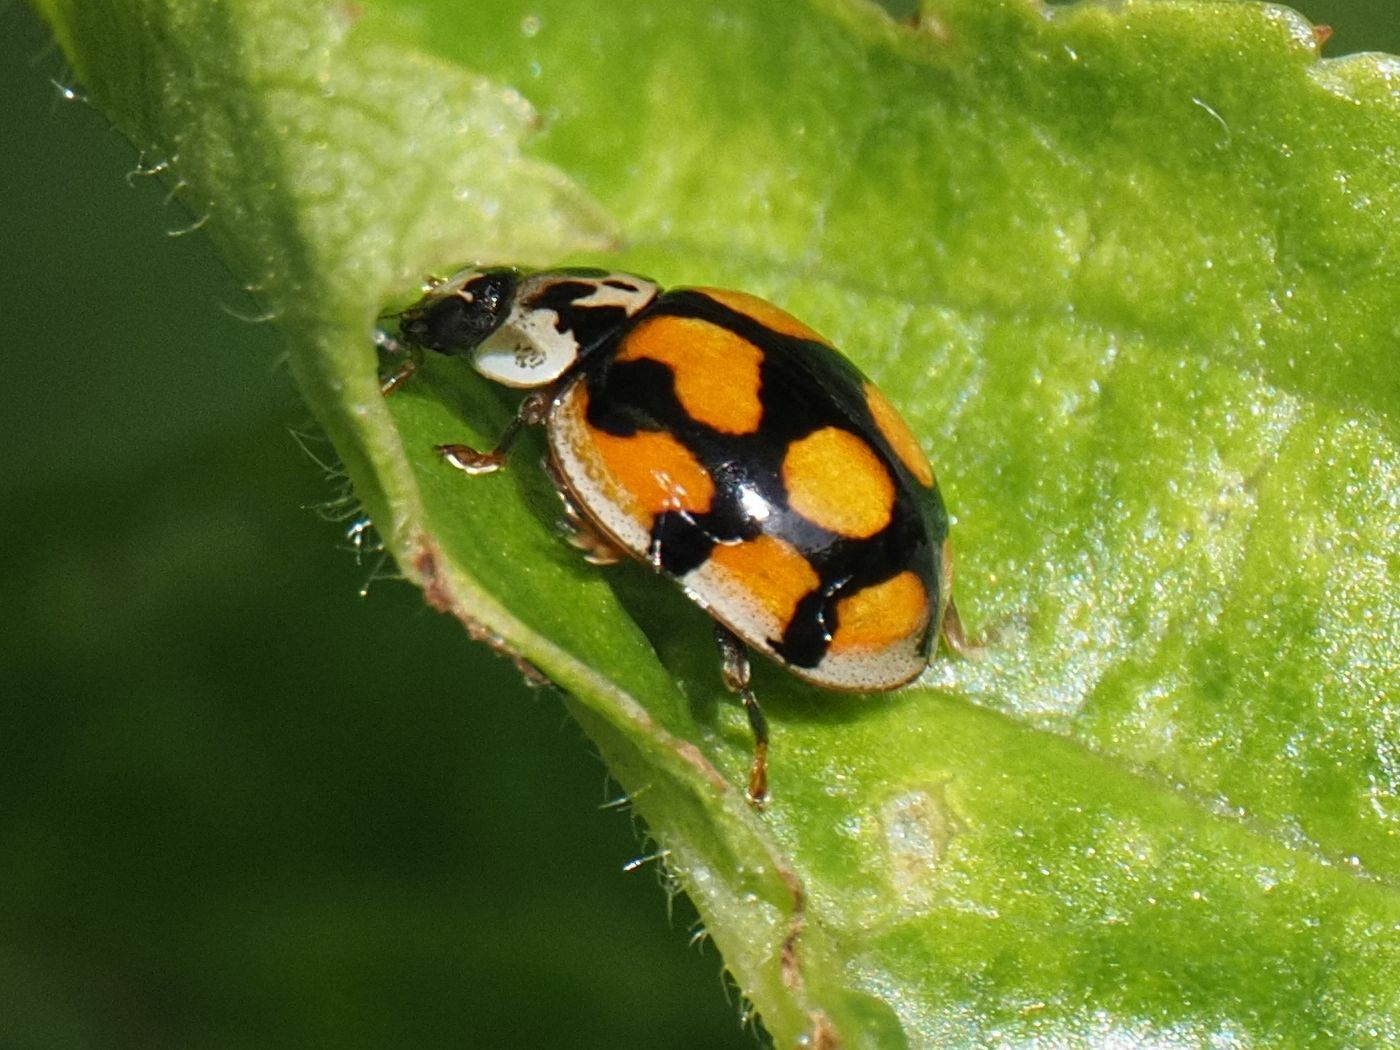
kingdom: Animalia
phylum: Arthropoda
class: Insecta
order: Coleoptera
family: Coccinellidae
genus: Adalia
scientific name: Adalia decempunctata
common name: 10-spot ladybird
